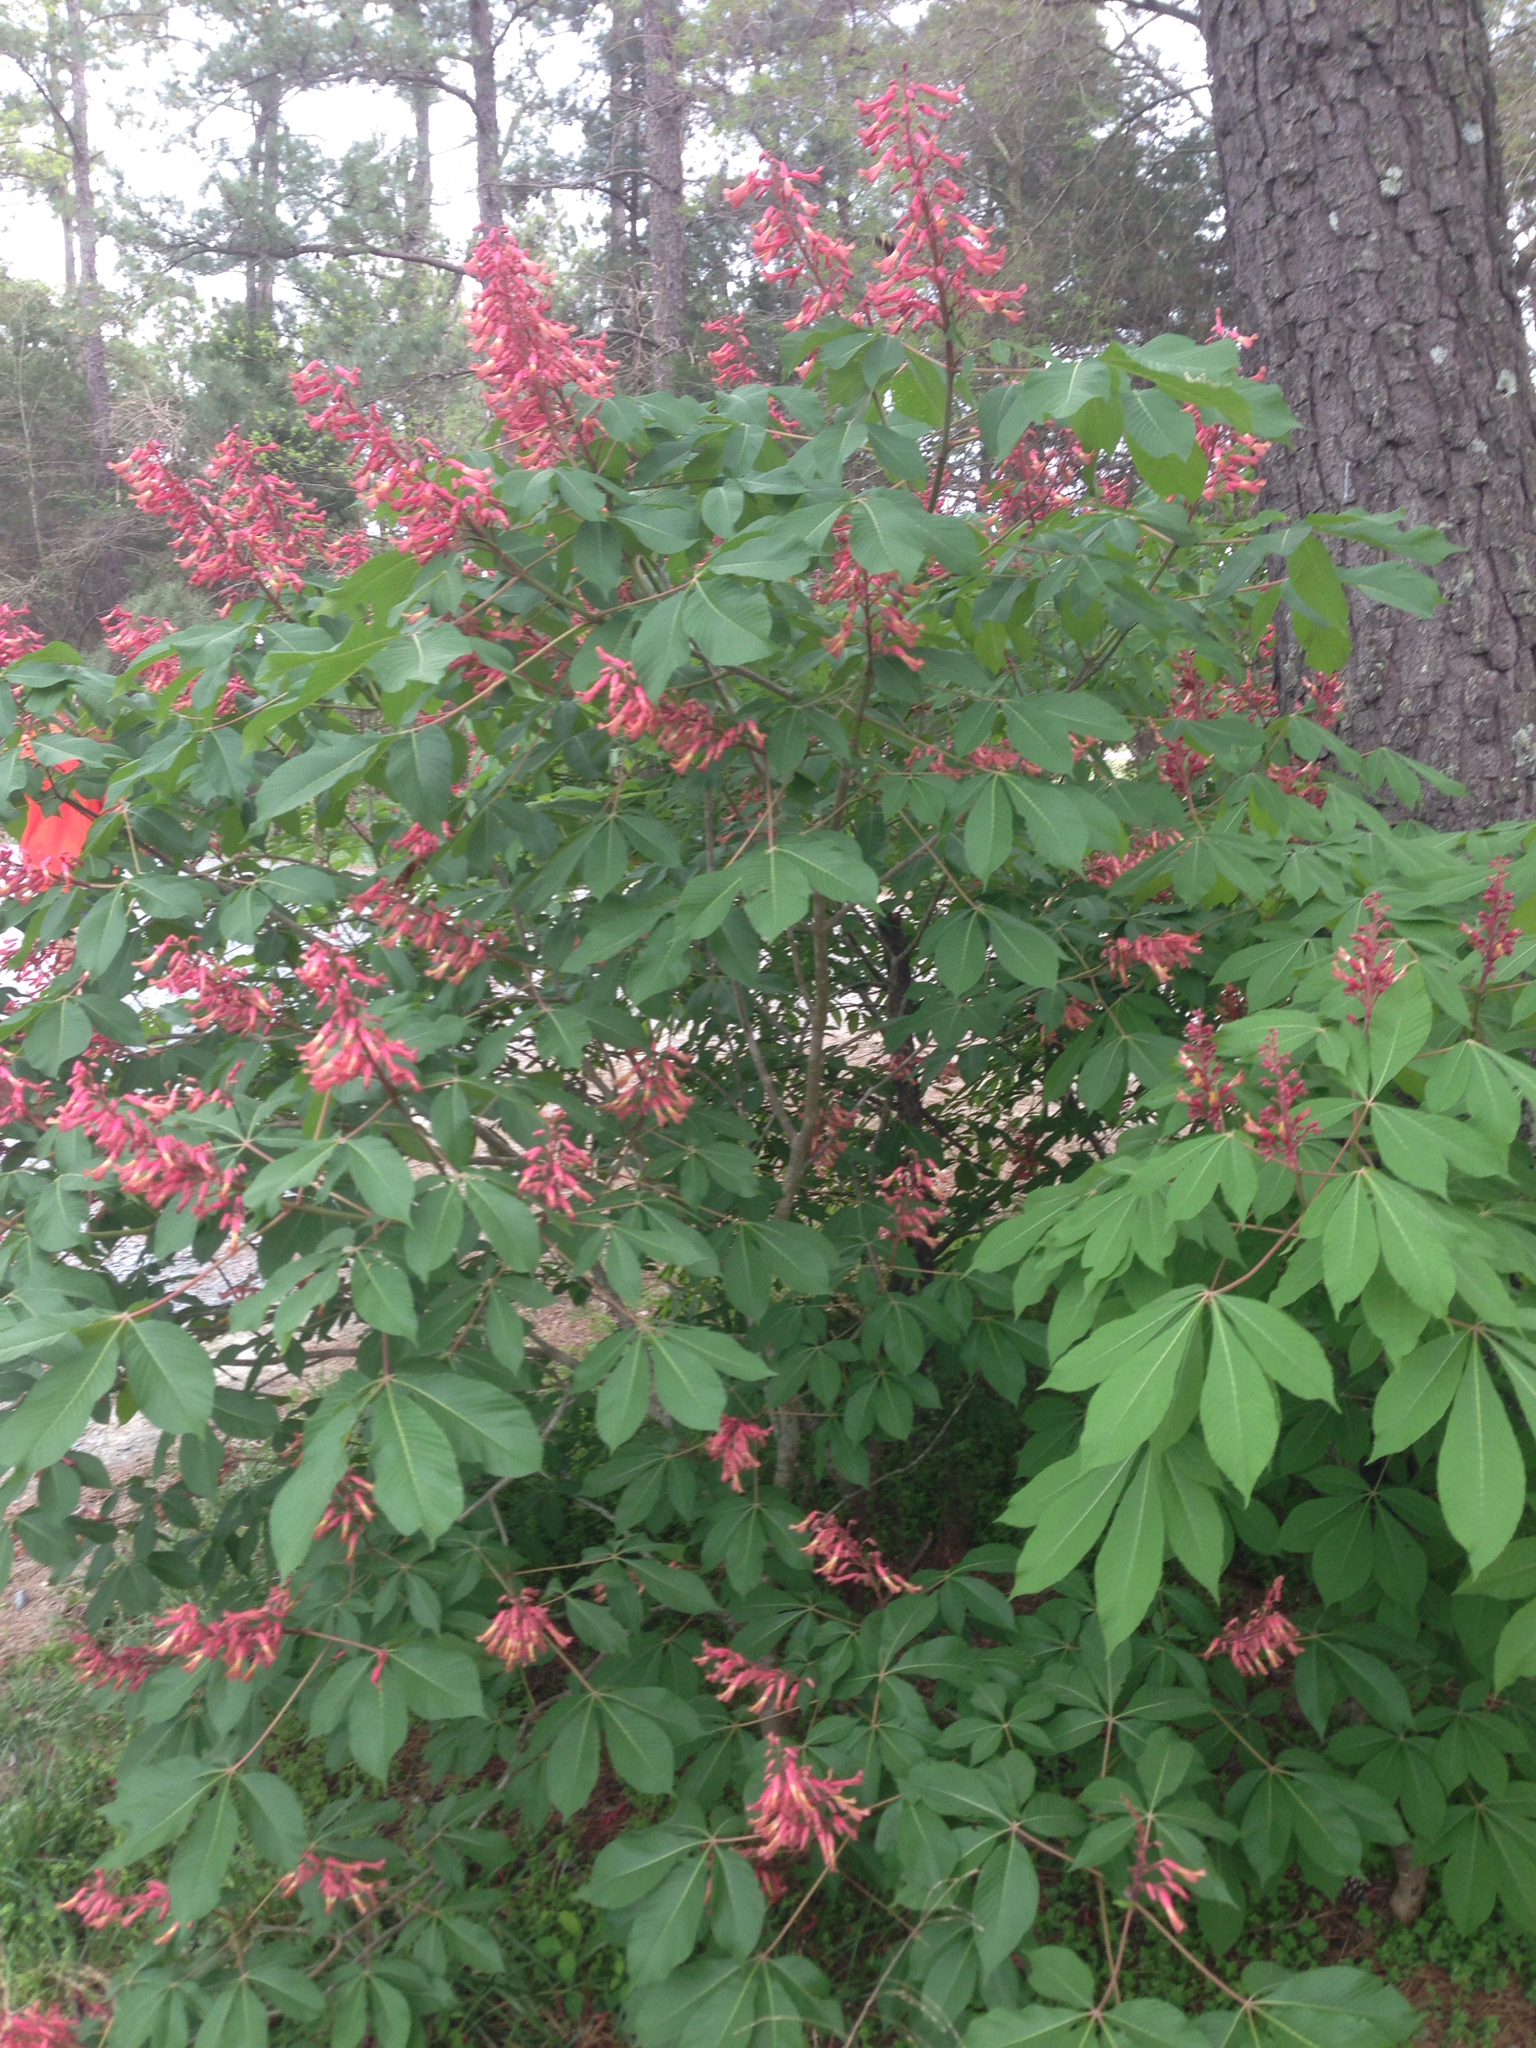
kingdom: Plantae
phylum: Tracheophyta
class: Magnoliopsida
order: Sapindales
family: Sapindaceae
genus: Aesculus
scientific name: Aesculus pavia
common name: Red buckeye
